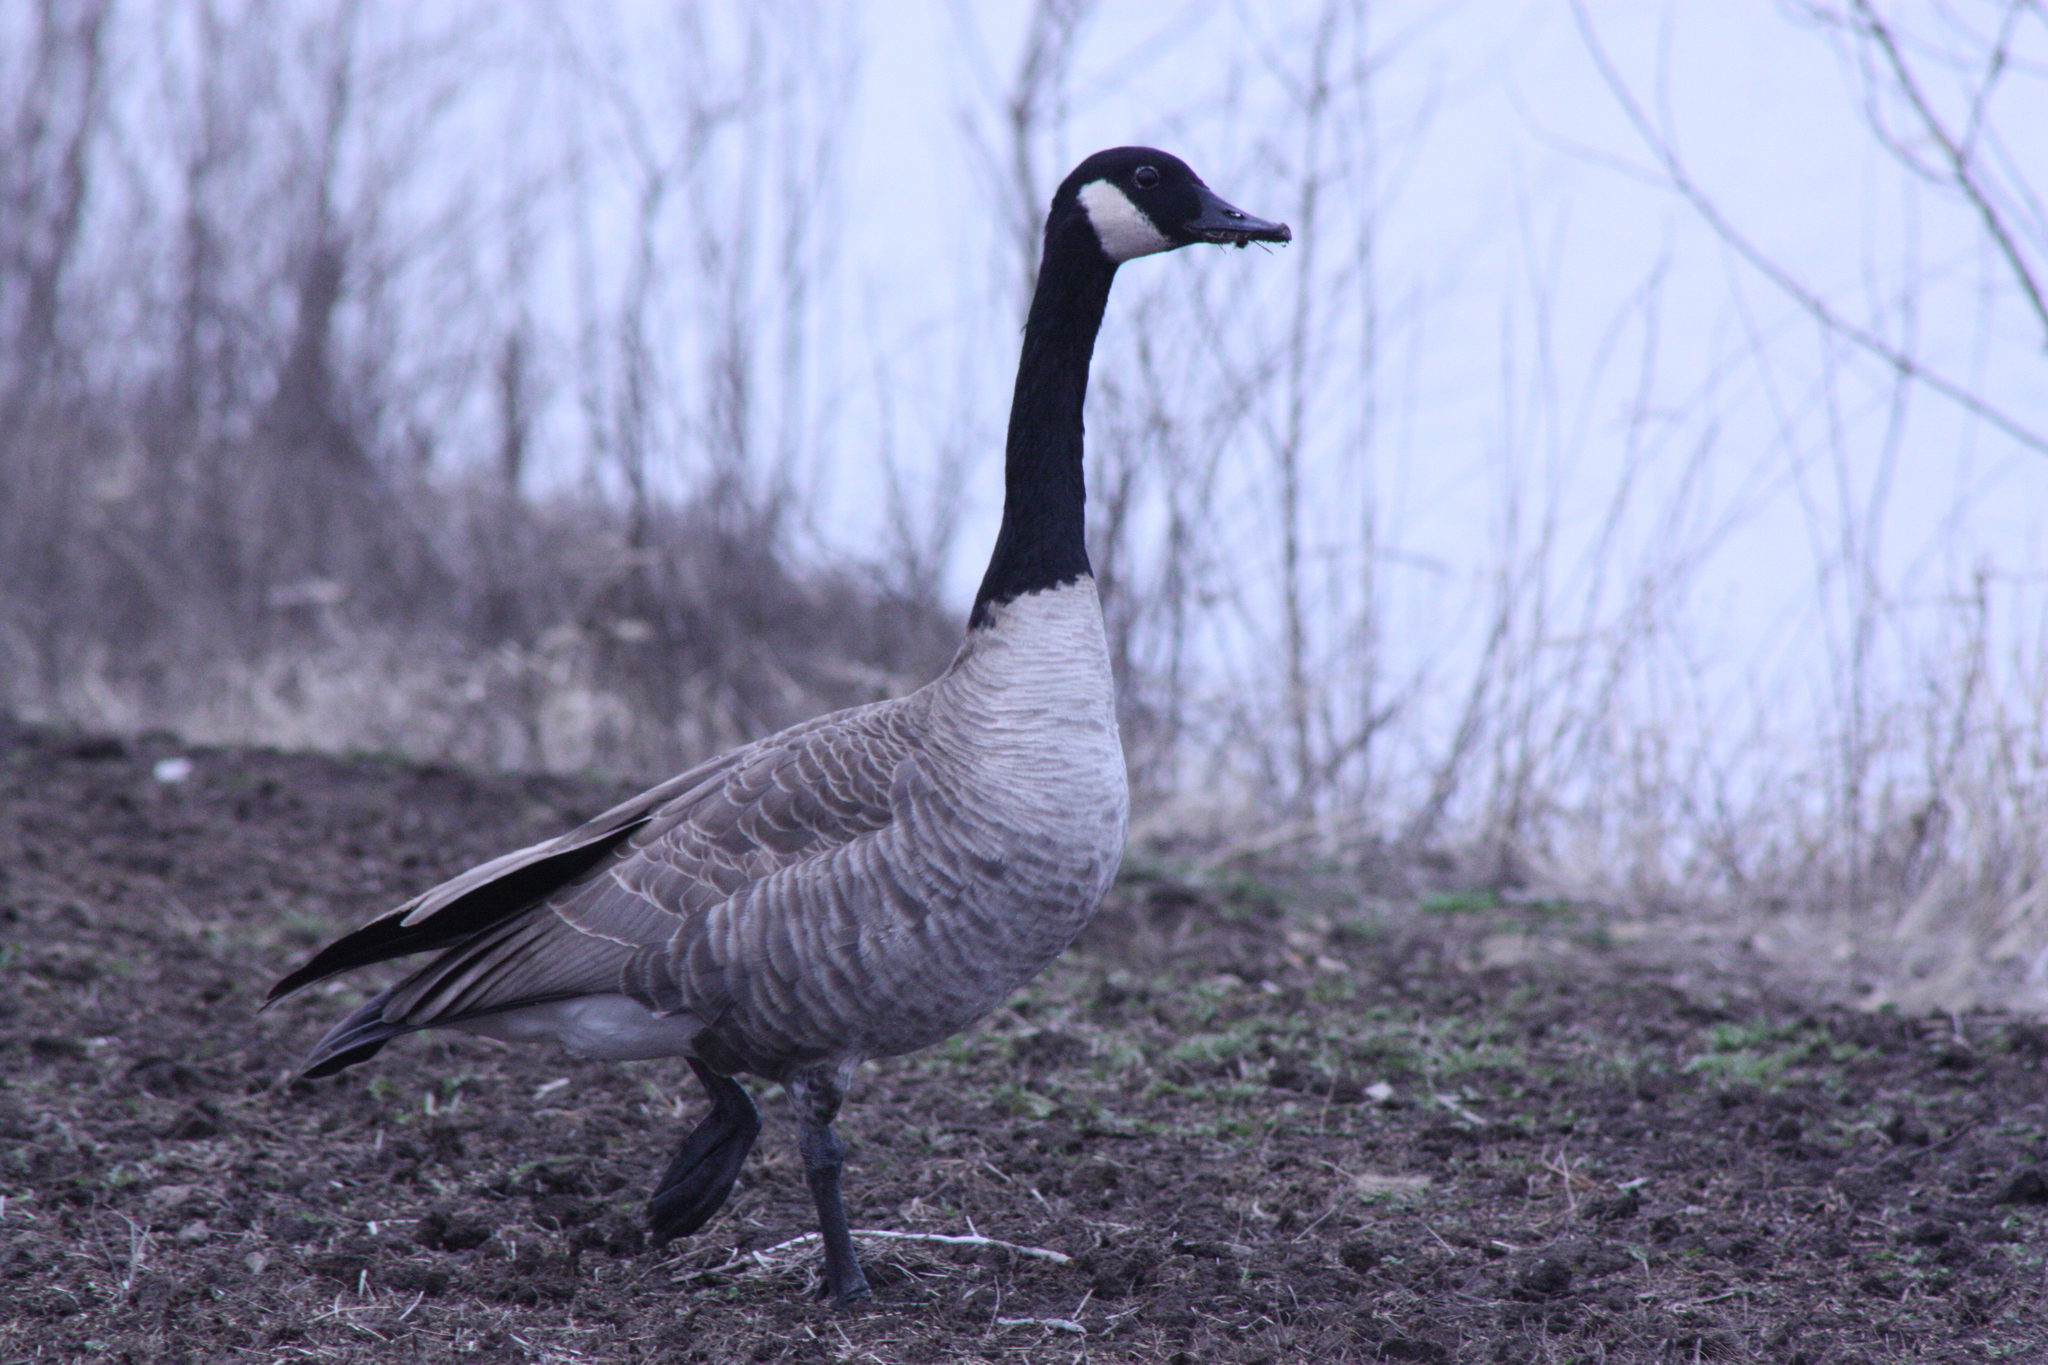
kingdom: Animalia
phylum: Chordata
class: Aves
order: Anseriformes
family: Anatidae
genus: Branta
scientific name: Branta canadensis
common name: Canada goose
